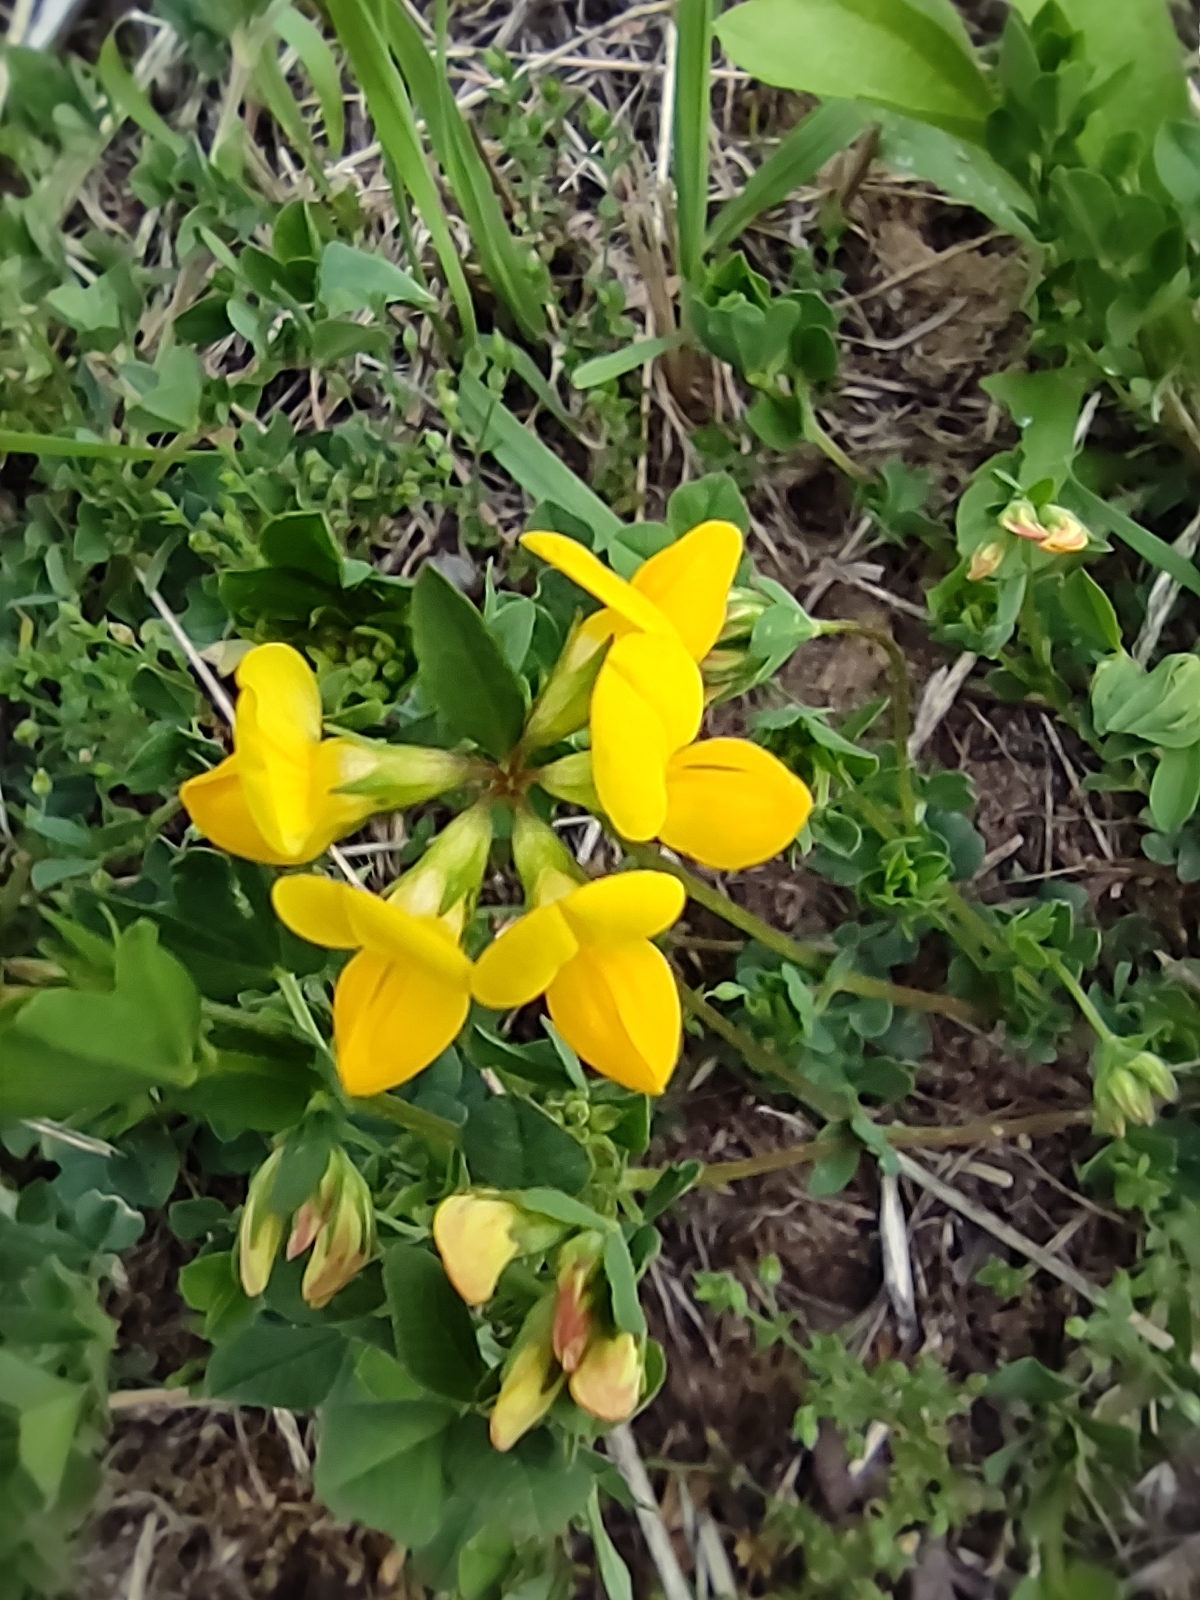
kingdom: Plantae
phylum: Tracheophyta
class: Magnoliopsida
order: Fabales
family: Fabaceae
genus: Lotus
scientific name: Lotus corniculatus
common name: Common bird's-foot-trefoil
